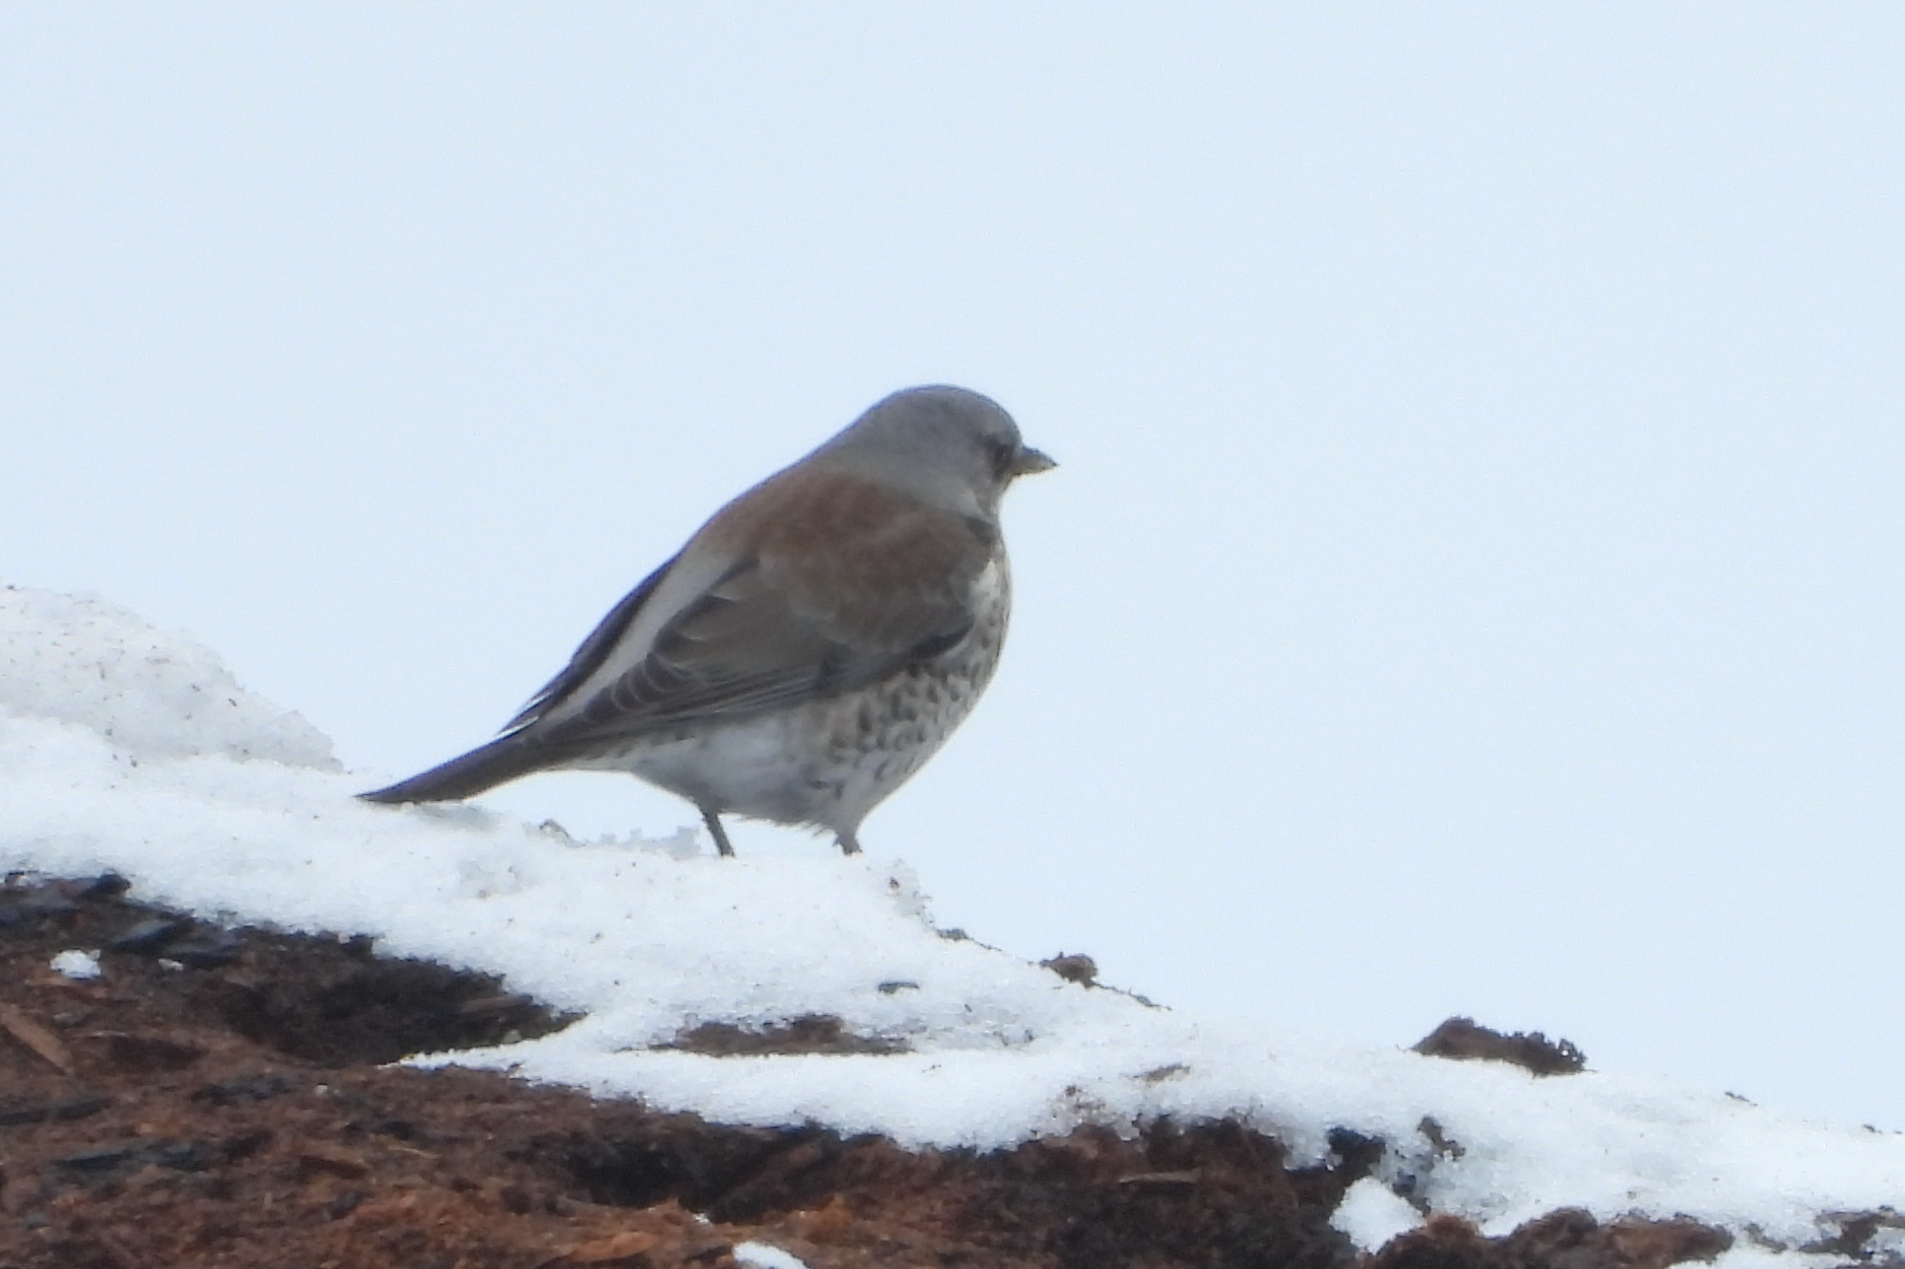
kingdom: Animalia
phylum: Chordata
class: Aves
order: Passeriformes
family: Turdidae
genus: Turdus
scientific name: Turdus pilaris
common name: Fieldfare
